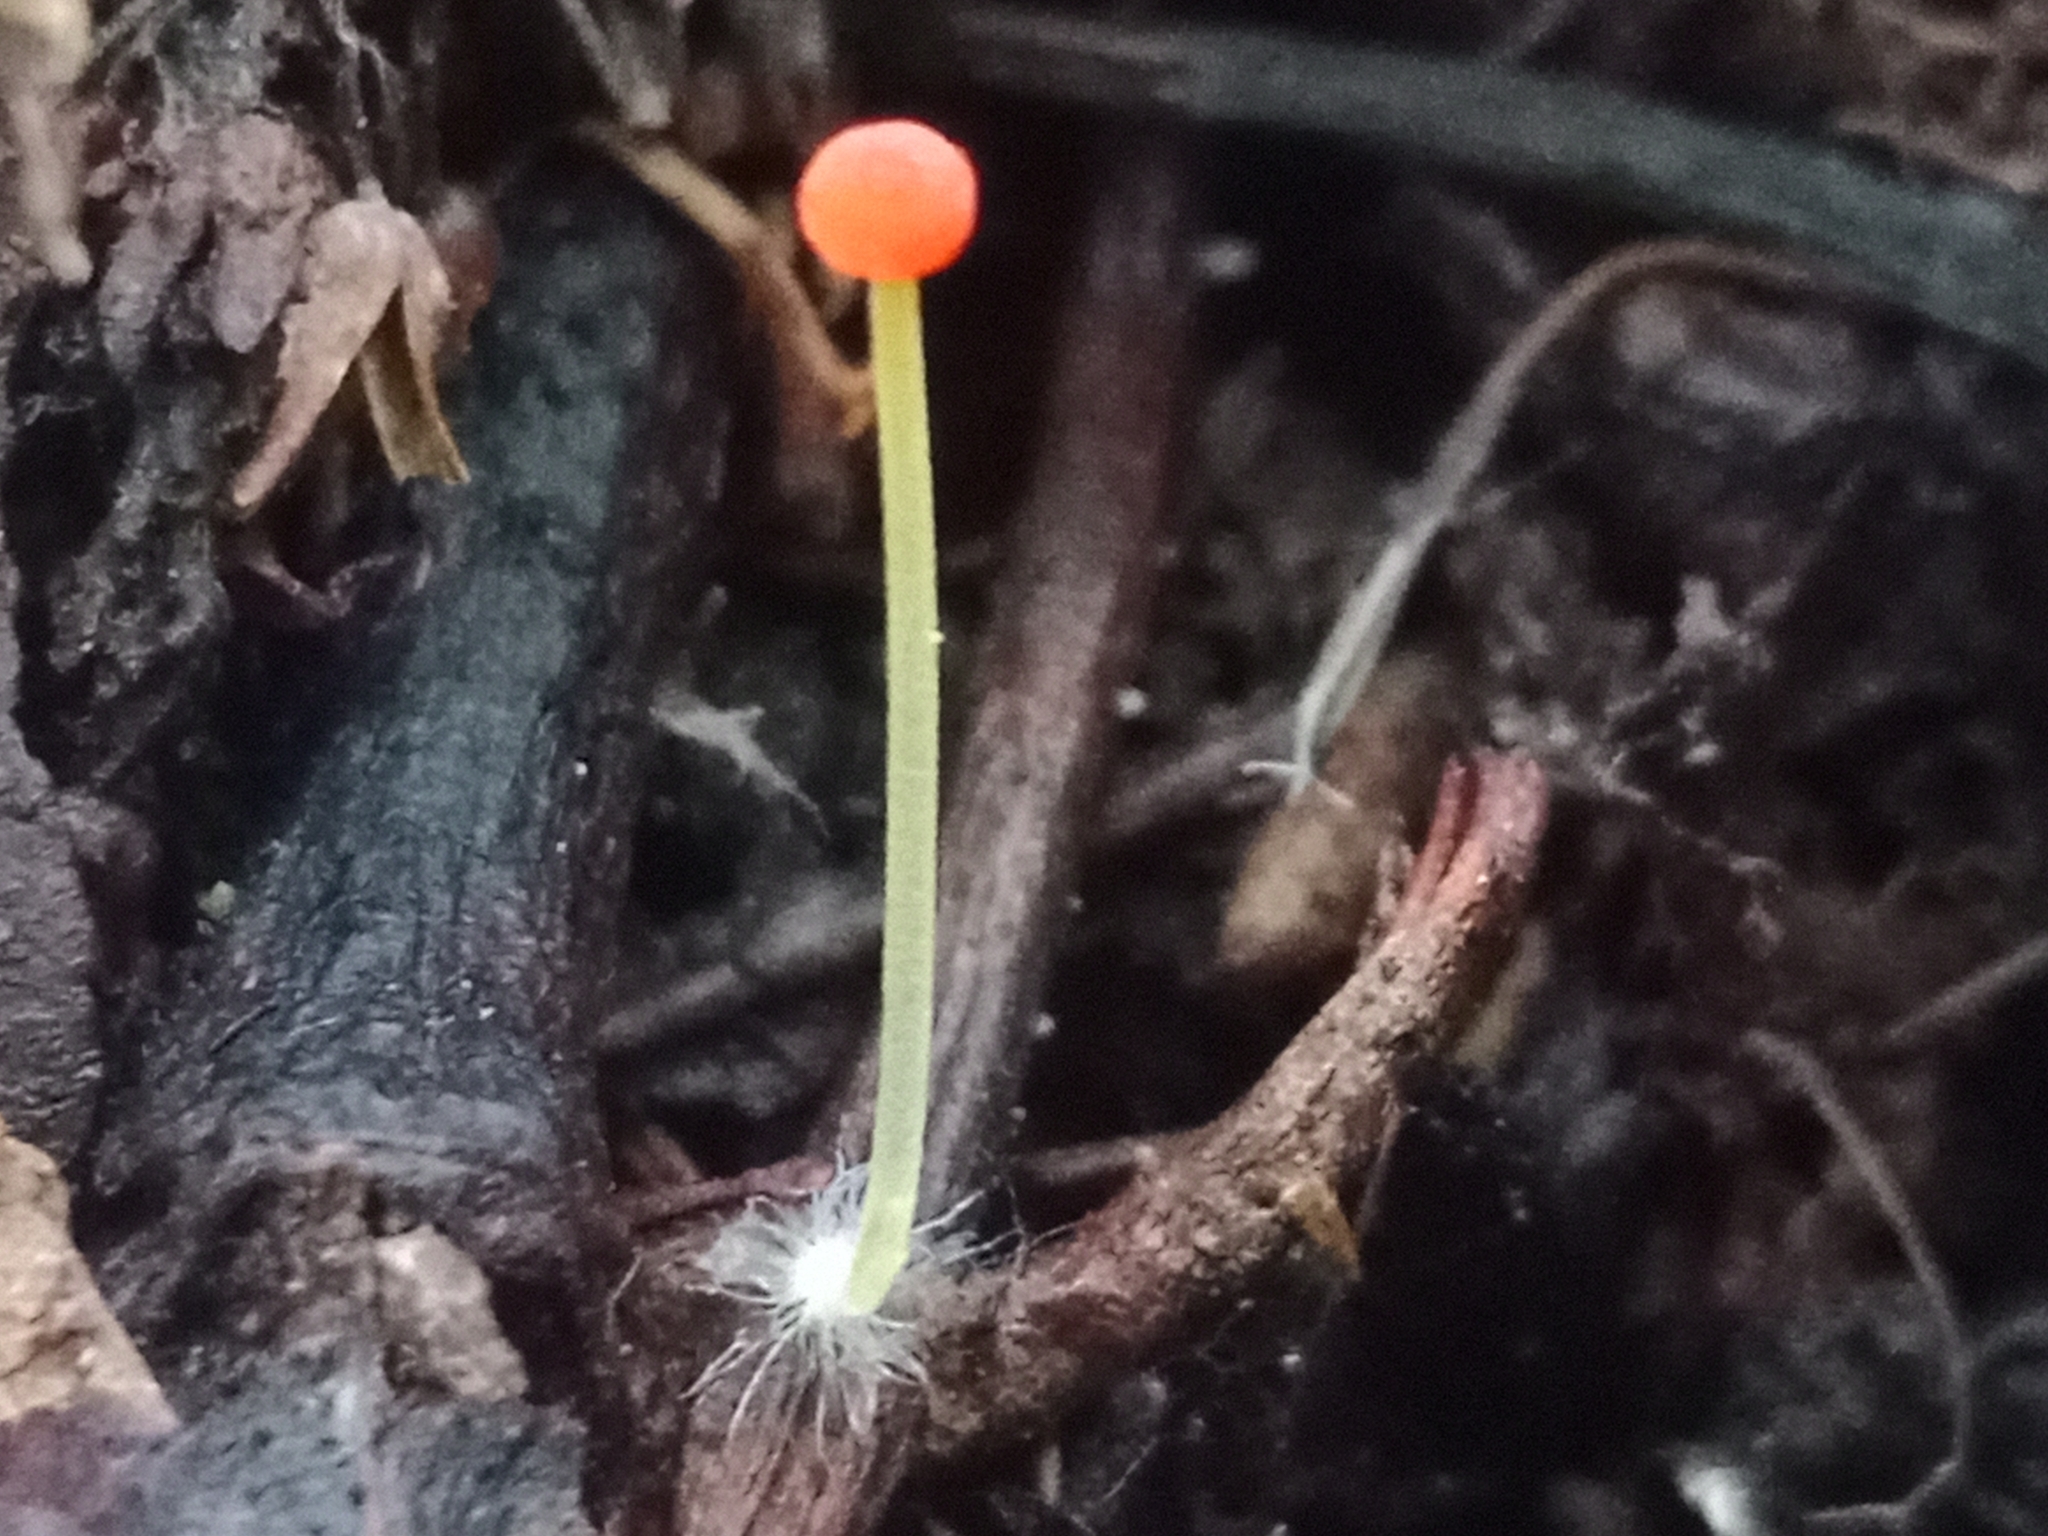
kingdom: Fungi
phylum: Basidiomycota
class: Agaricomycetes
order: Agaricales
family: Mycenaceae
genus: Mycena
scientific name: Mycena acicula
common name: Orange bonnet
